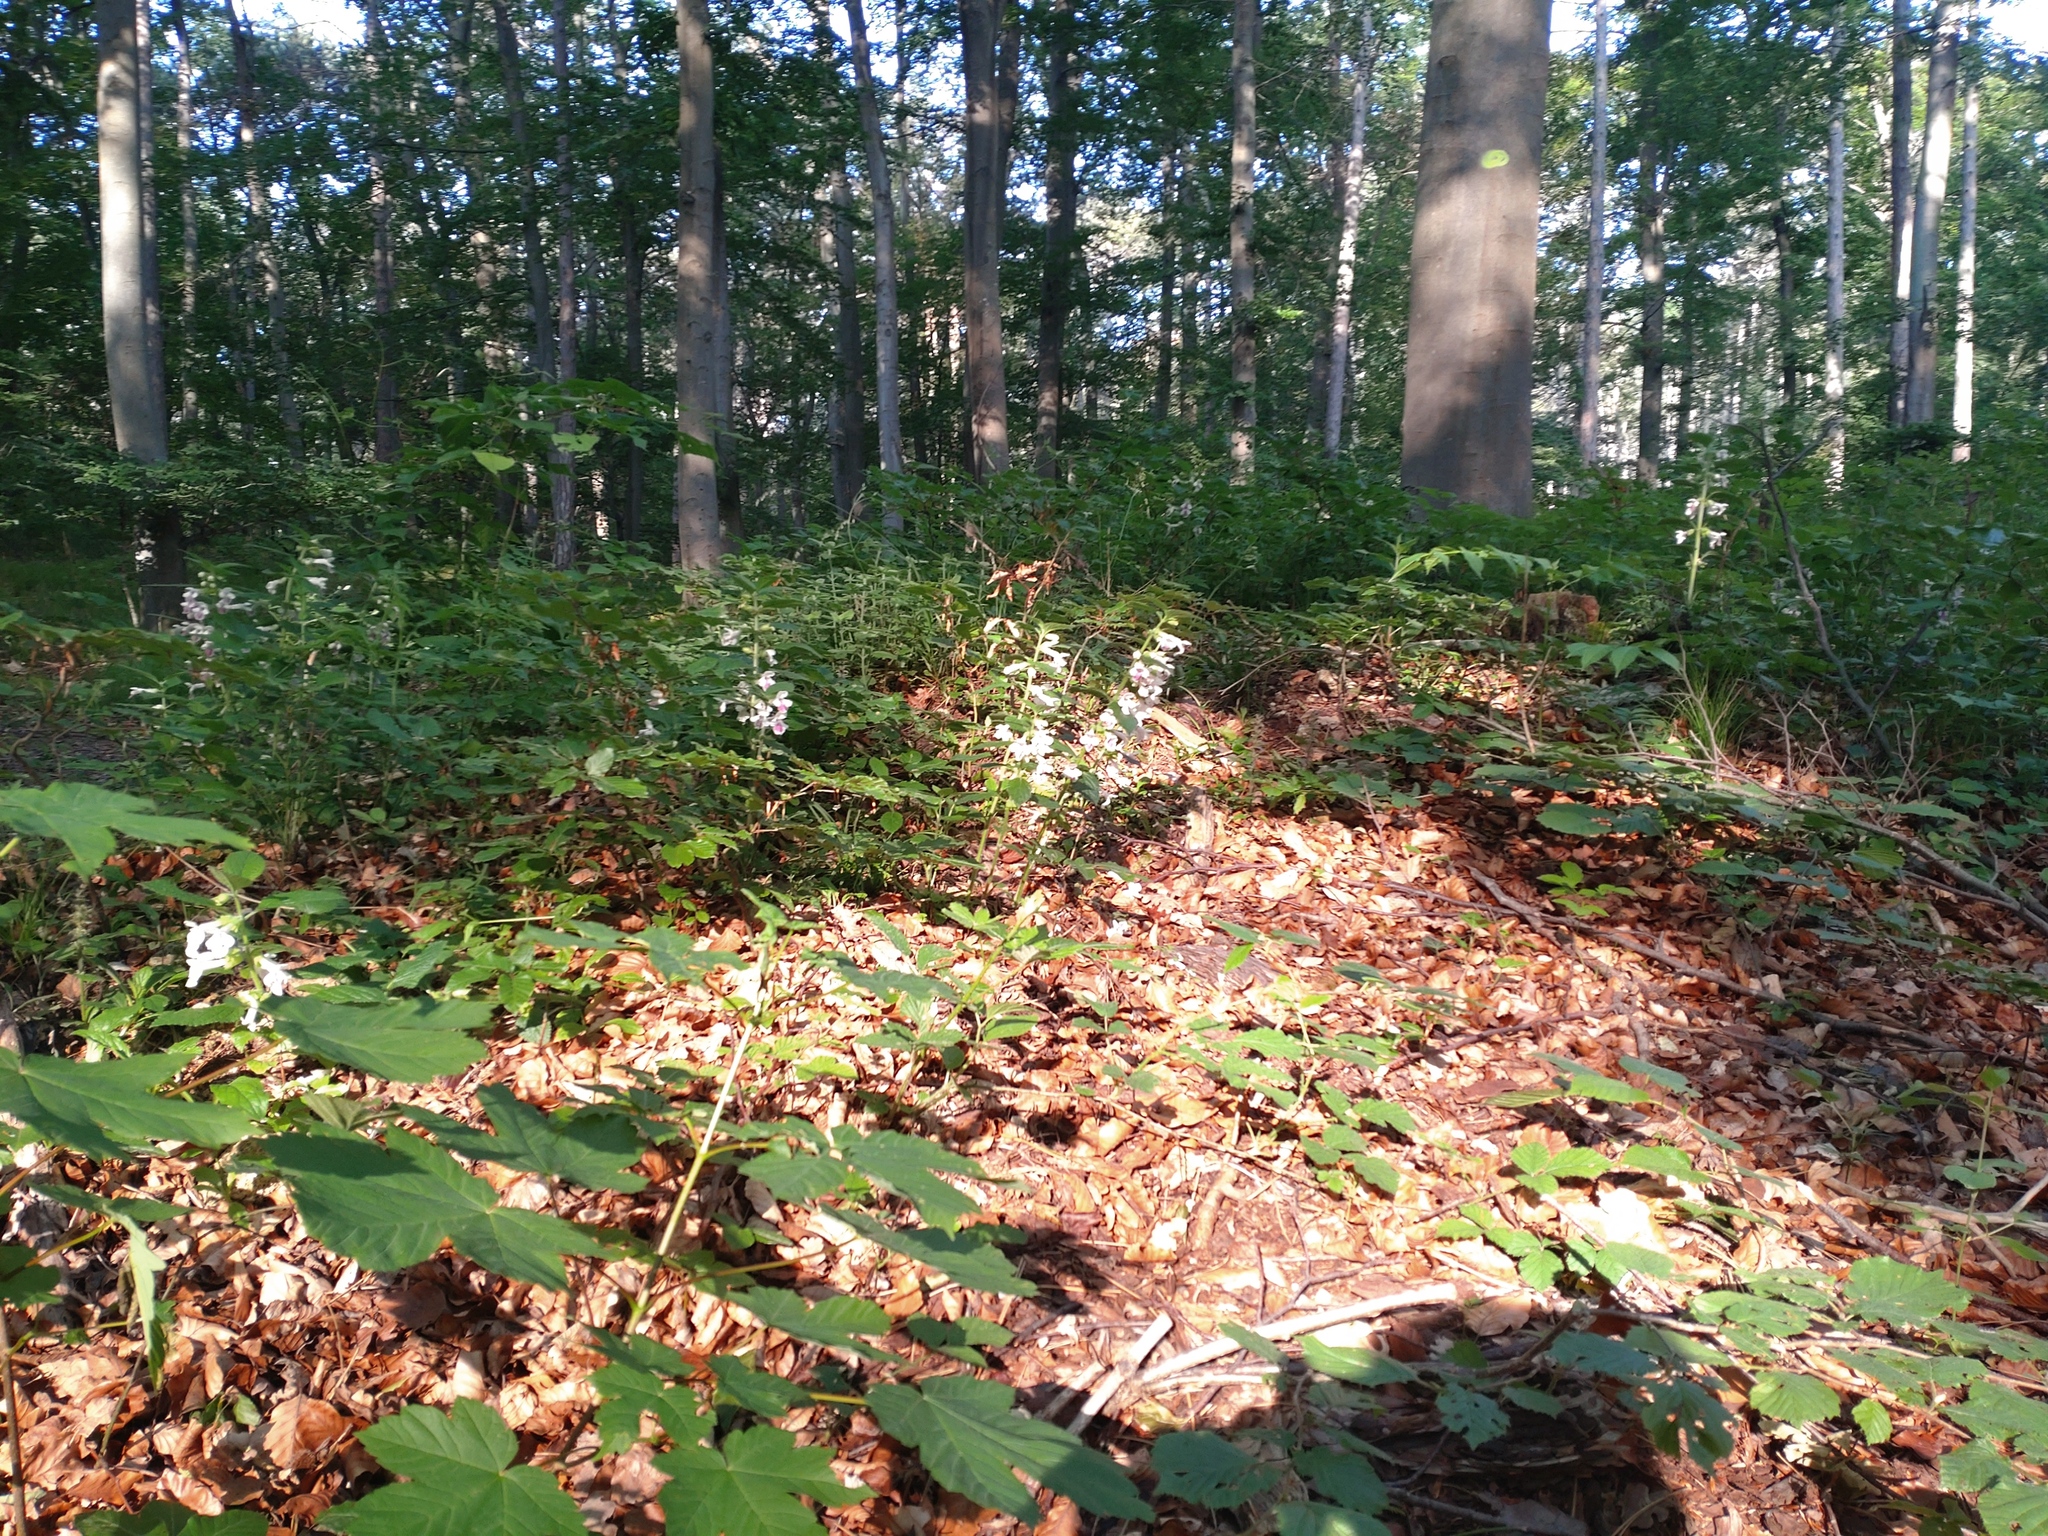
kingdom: Plantae
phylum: Tracheophyta
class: Magnoliopsida
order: Lamiales
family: Lamiaceae
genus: Melittis
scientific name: Melittis melissophyllum
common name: Bastard balm
